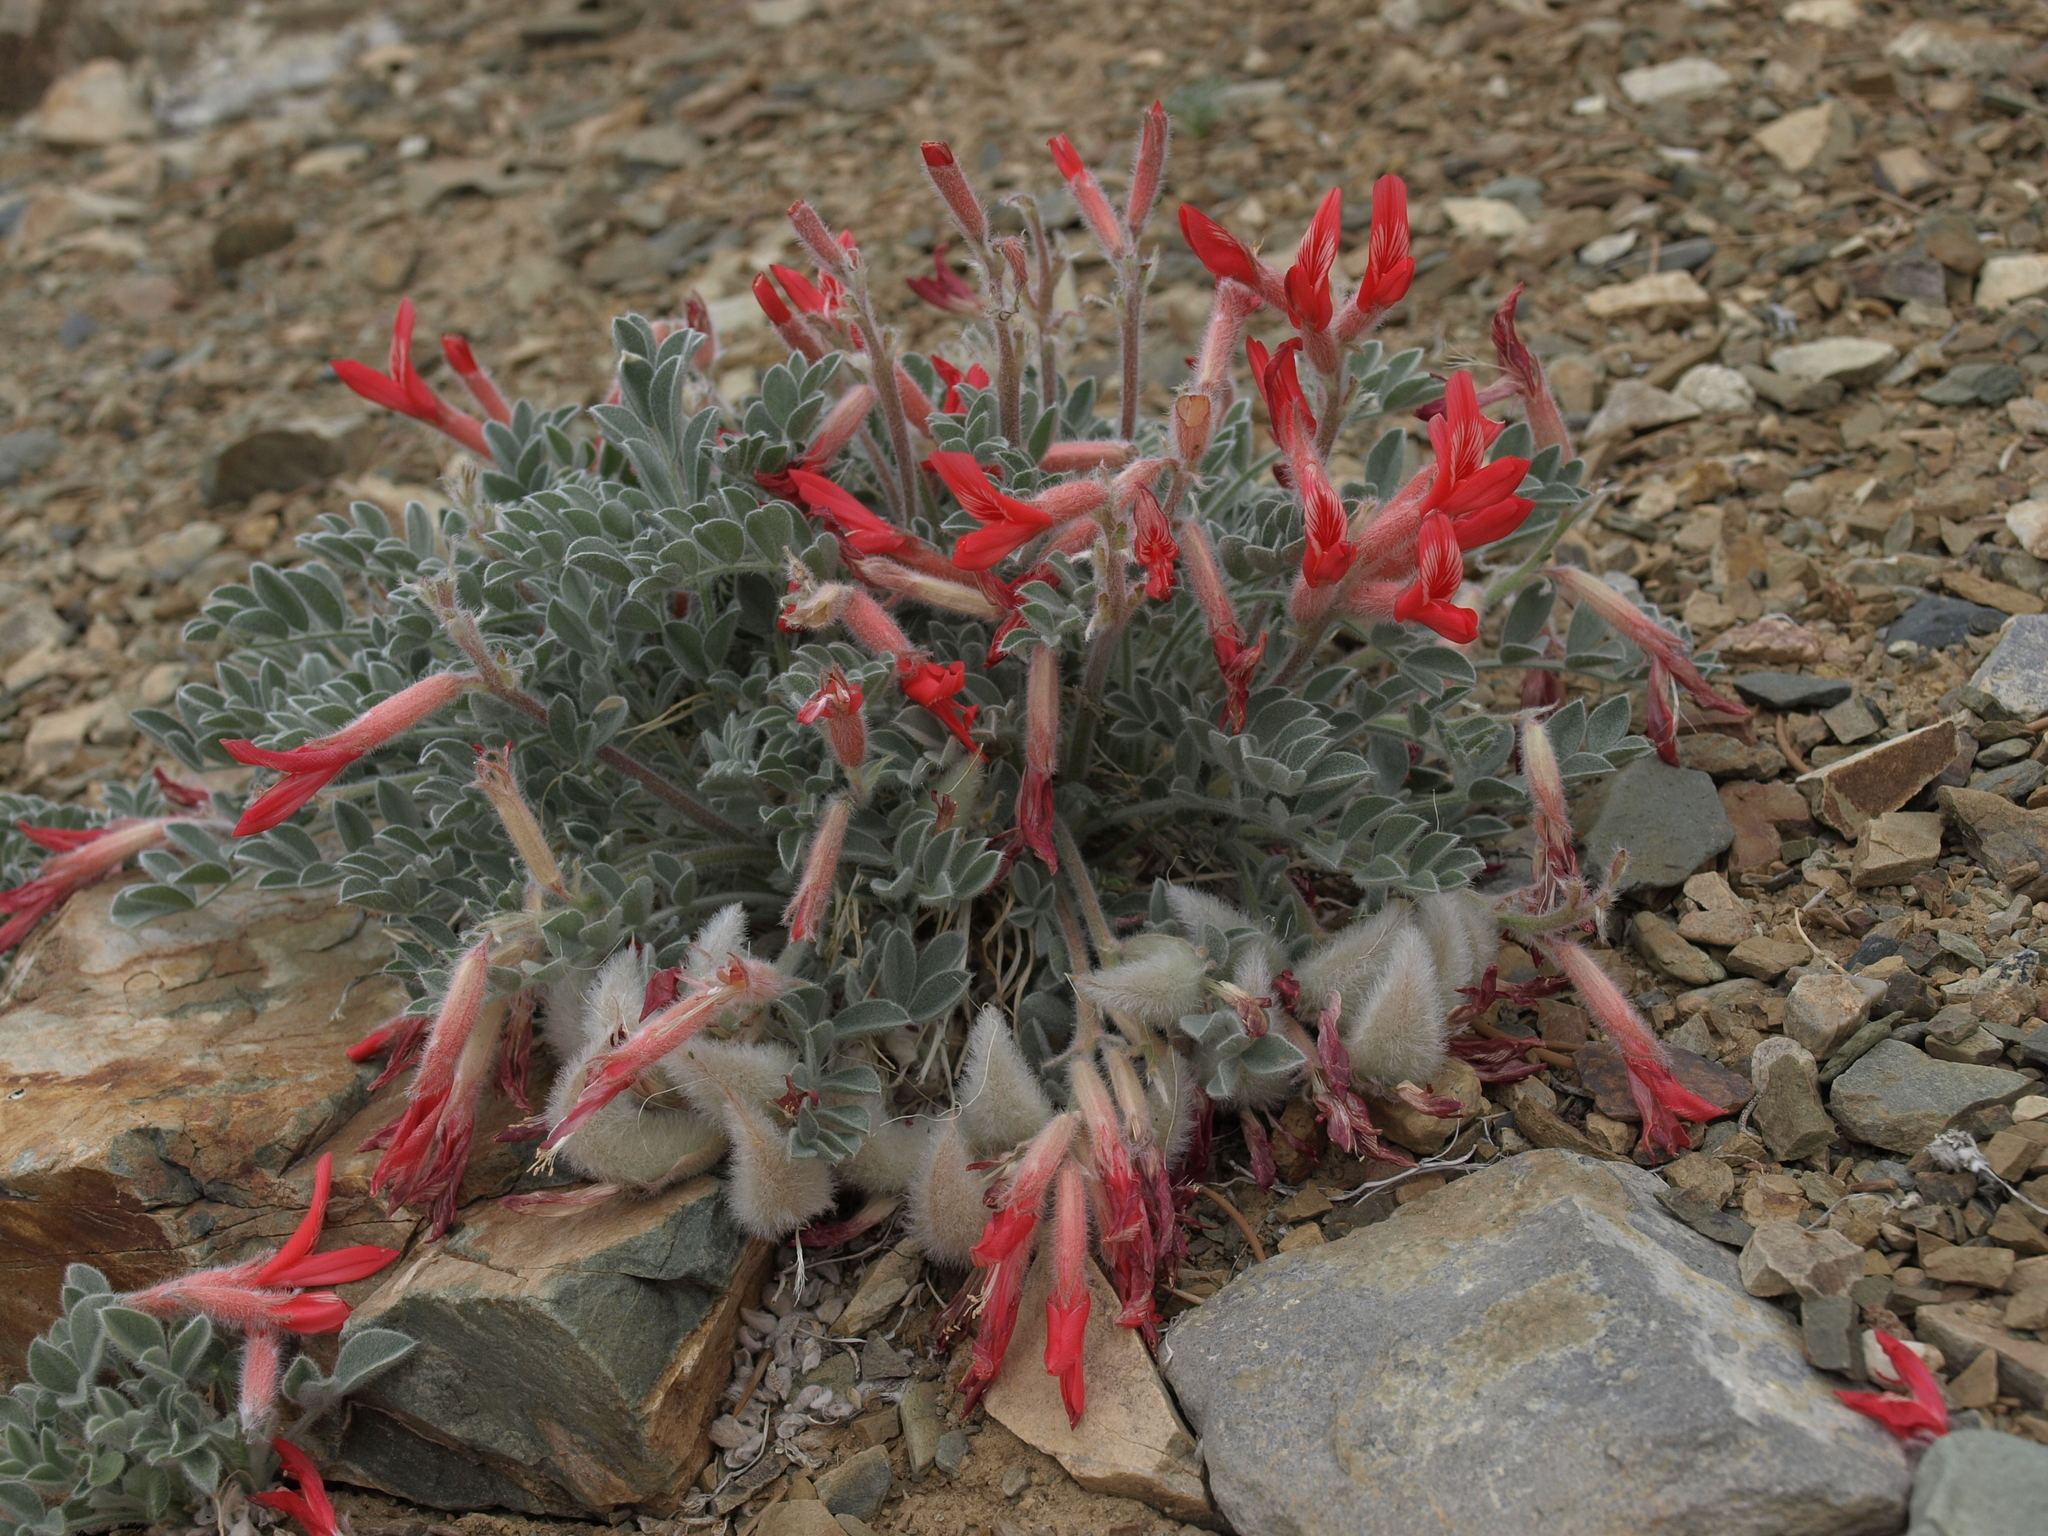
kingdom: Plantae
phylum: Tracheophyta
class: Magnoliopsida
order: Fabales
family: Fabaceae
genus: Astragalus
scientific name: Astragalus coccineus
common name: Scarlet milk-vetch
